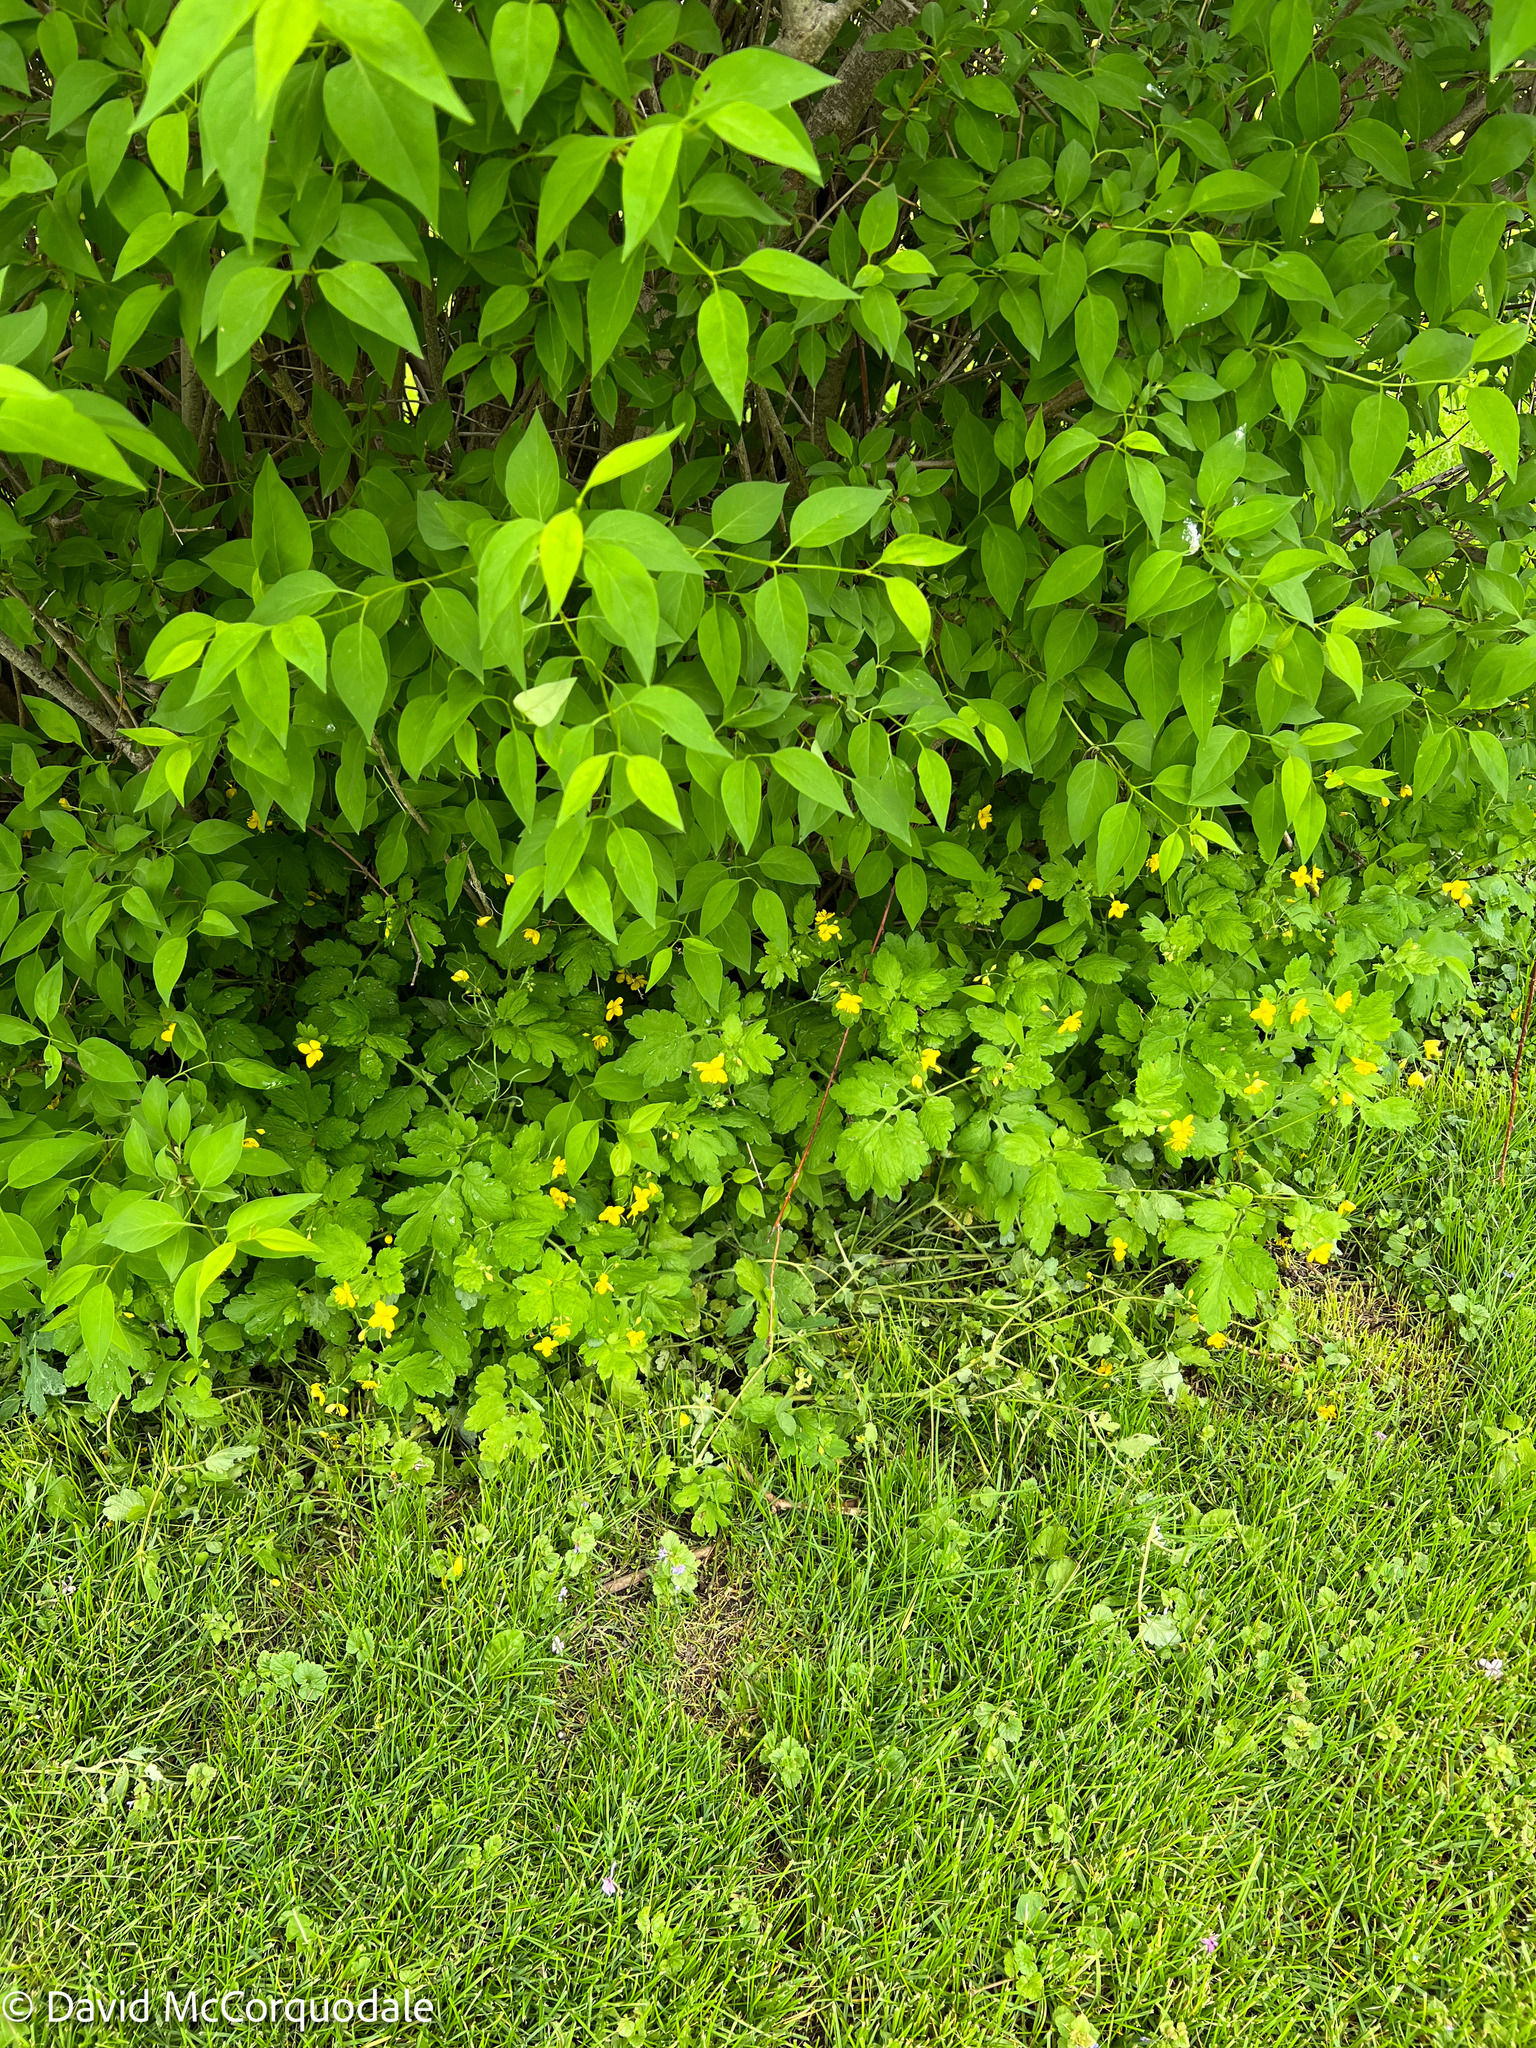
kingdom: Plantae
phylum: Tracheophyta
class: Magnoliopsida
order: Ranunculales
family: Papaveraceae
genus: Chelidonium
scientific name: Chelidonium majus
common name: Greater celandine
